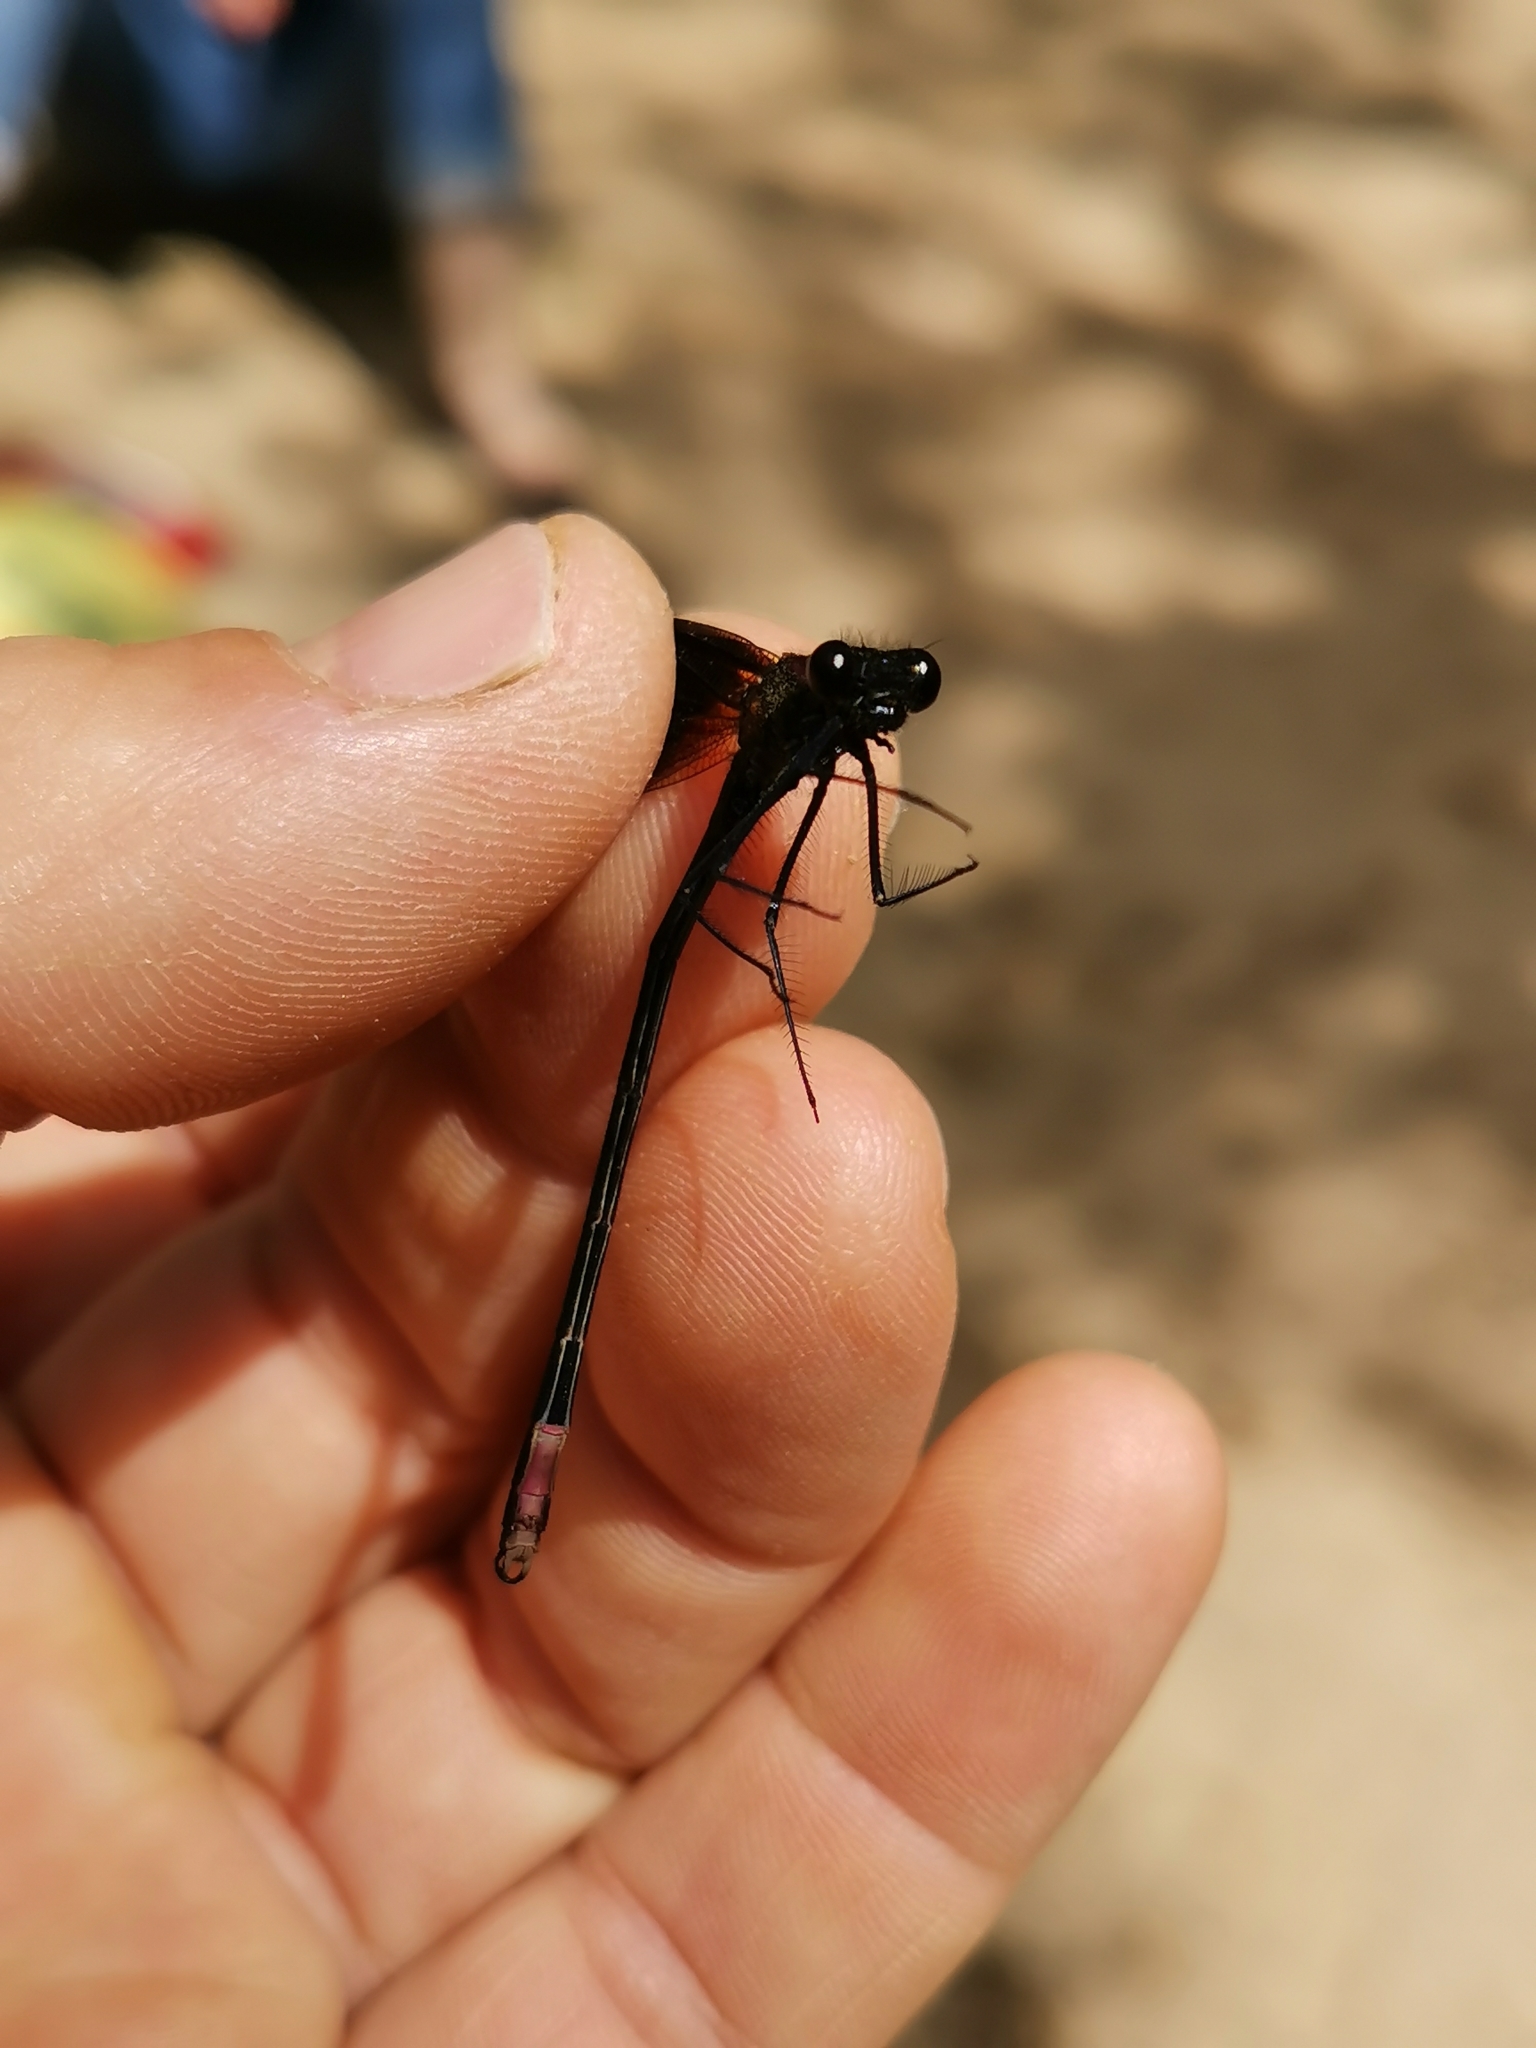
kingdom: Animalia
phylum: Arthropoda
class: Insecta
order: Odonata
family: Calopterygidae
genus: Calopteryx
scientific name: Calopteryx haemorrhoidalis
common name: Copper demoiselle
